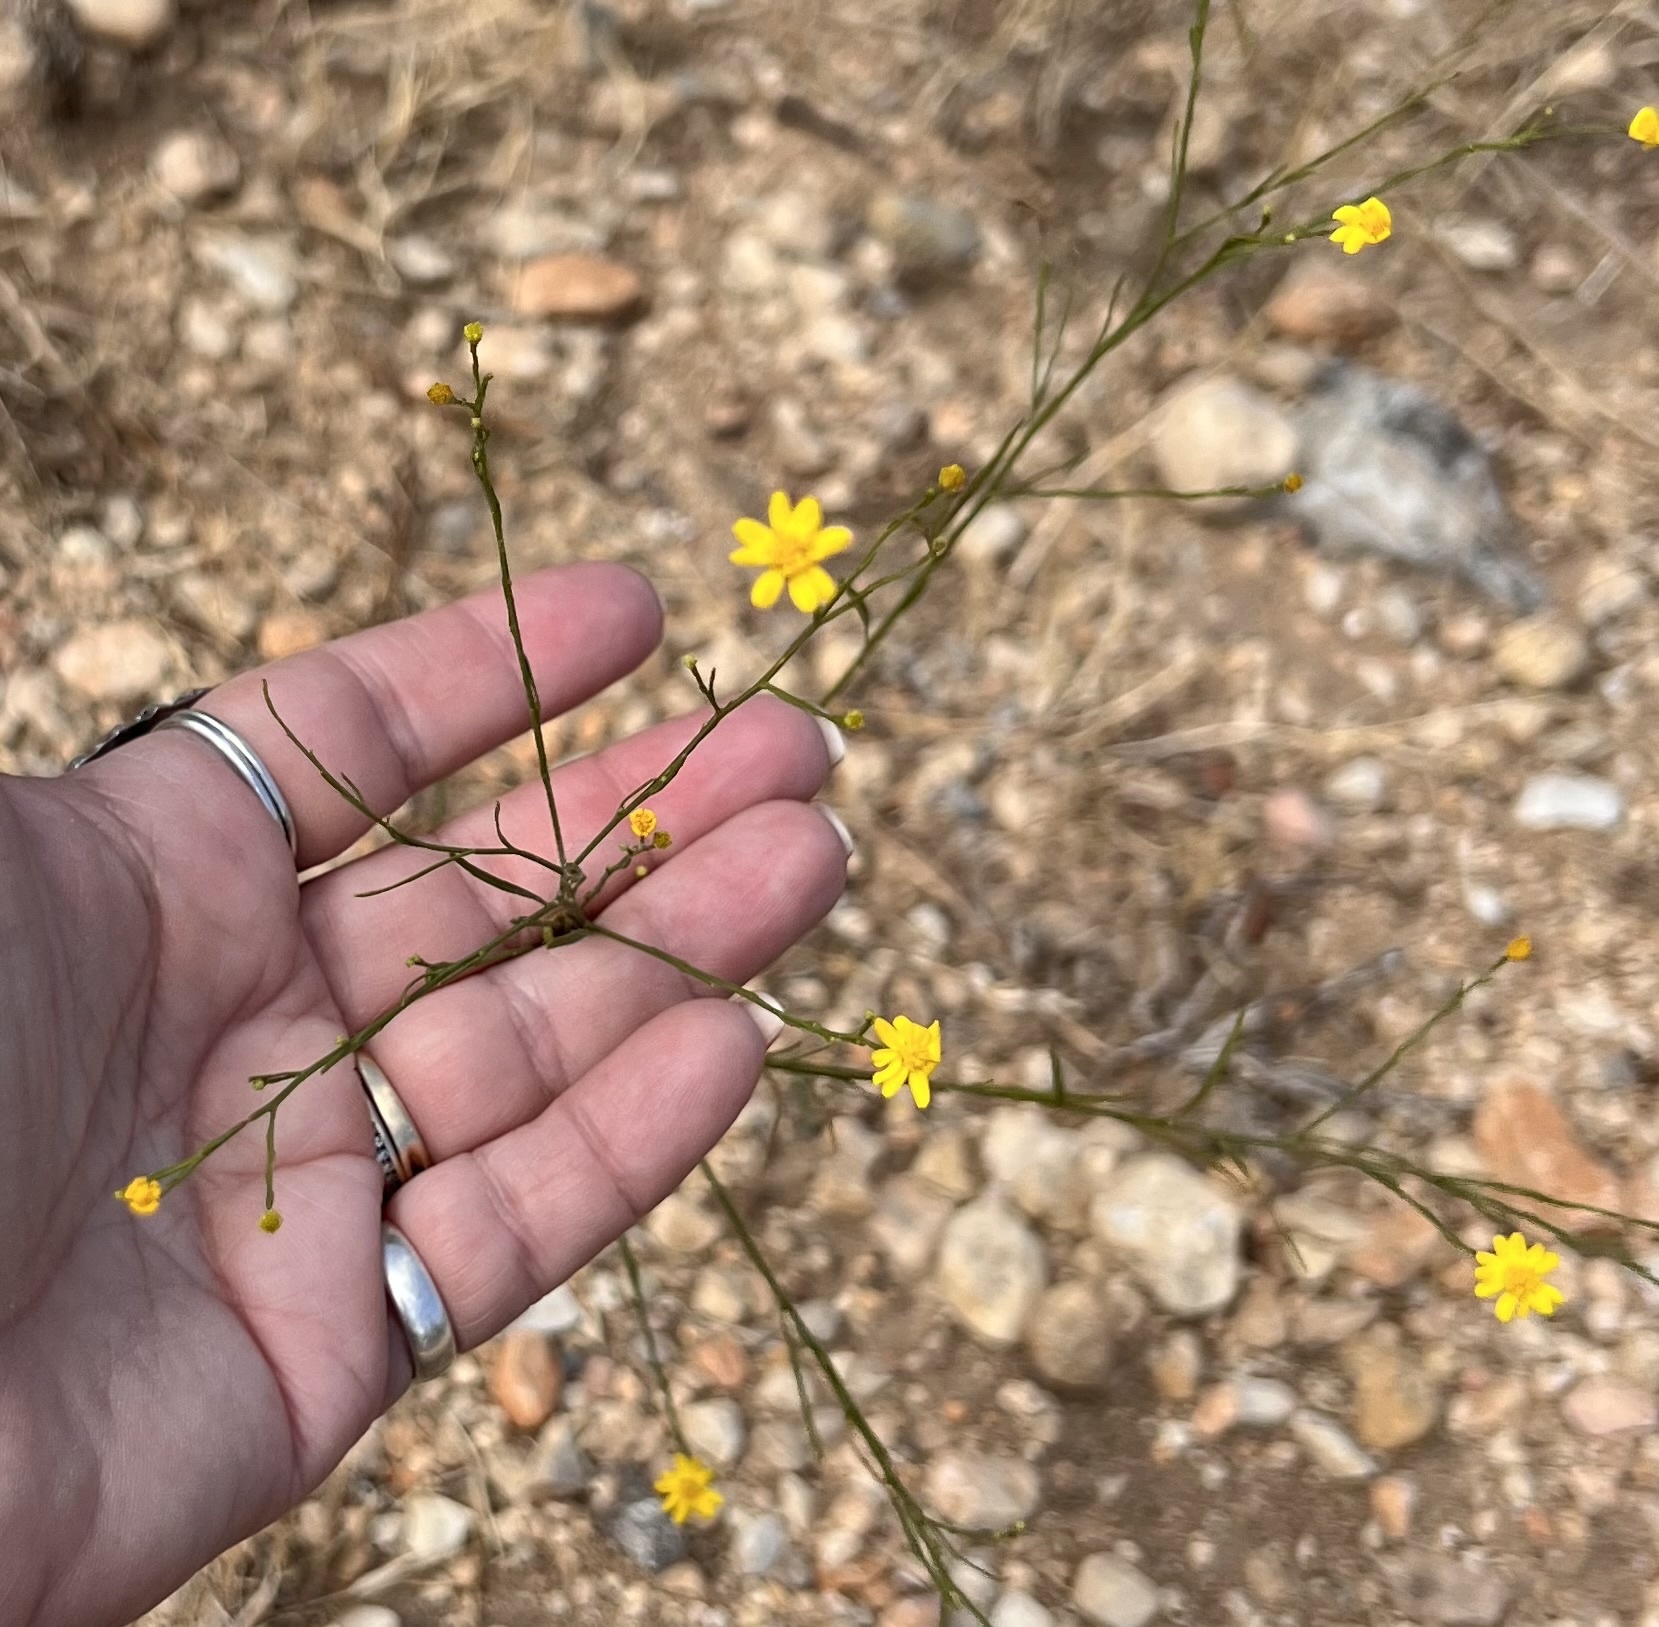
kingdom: Plantae
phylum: Tracheophyta
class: Magnoliopsida
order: Asterales
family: Asteraceae
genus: Gutierrezia
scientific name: Gutierrezia texana
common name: Texas snakeweed
